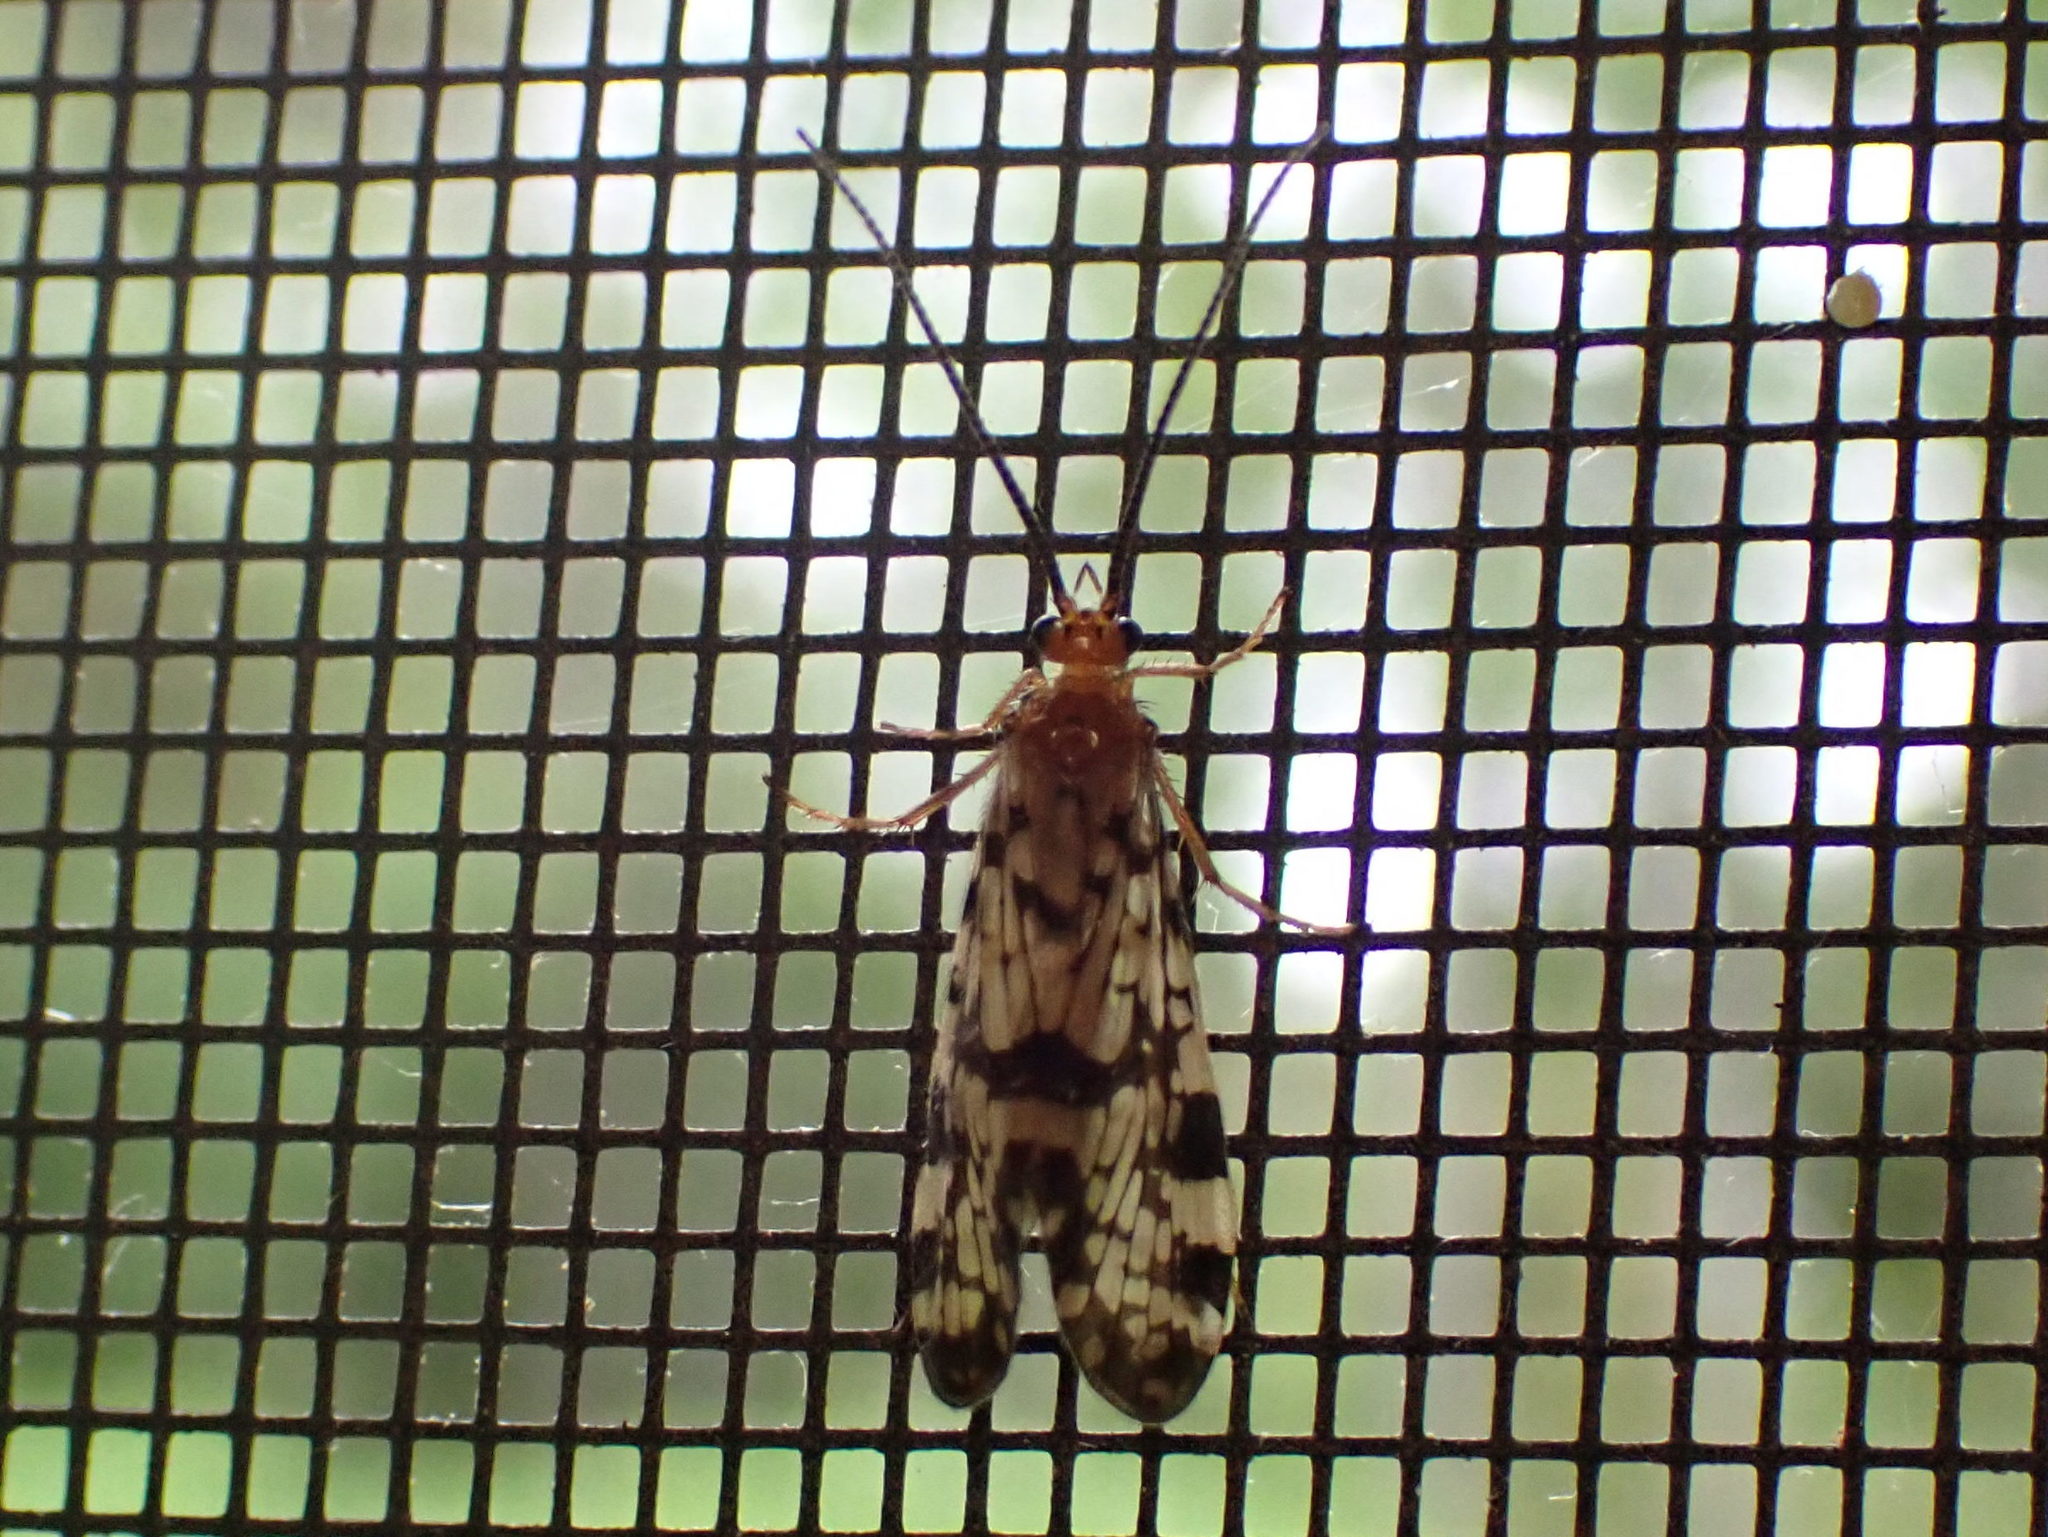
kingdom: Animalia
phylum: Arthropoda
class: Insecta
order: Trichoptera
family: Phryganeidae
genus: Banksiola
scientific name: Banksiola dossuaria
